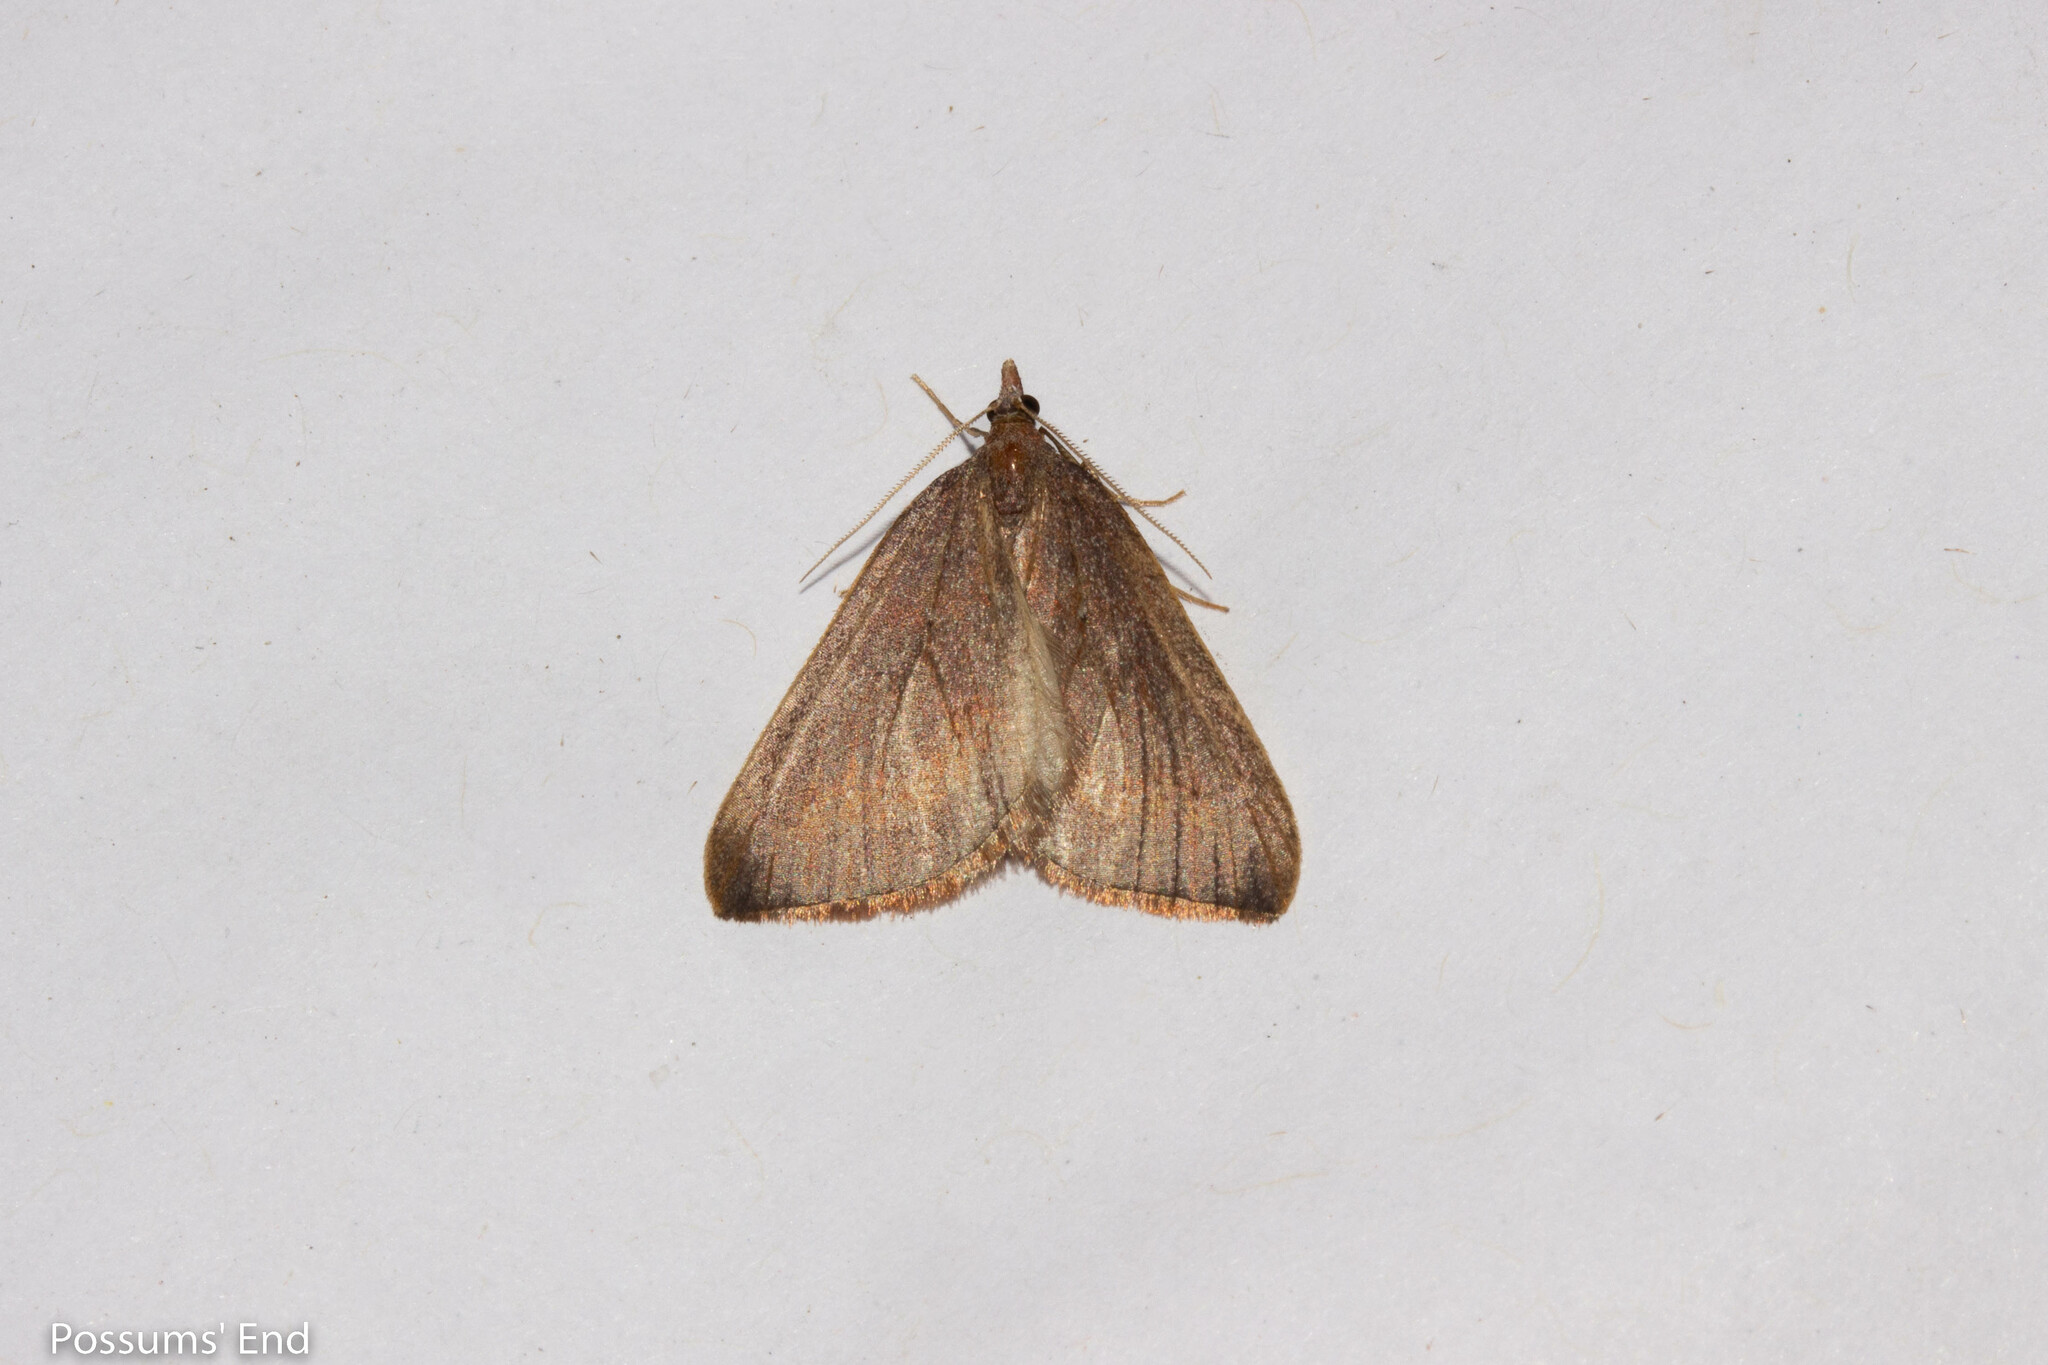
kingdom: Animalia
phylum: Arthropoda
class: Insecta
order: Lepidoptera
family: Geometridae
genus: Xanthorhoe
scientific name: Xanthorhoe occulta
